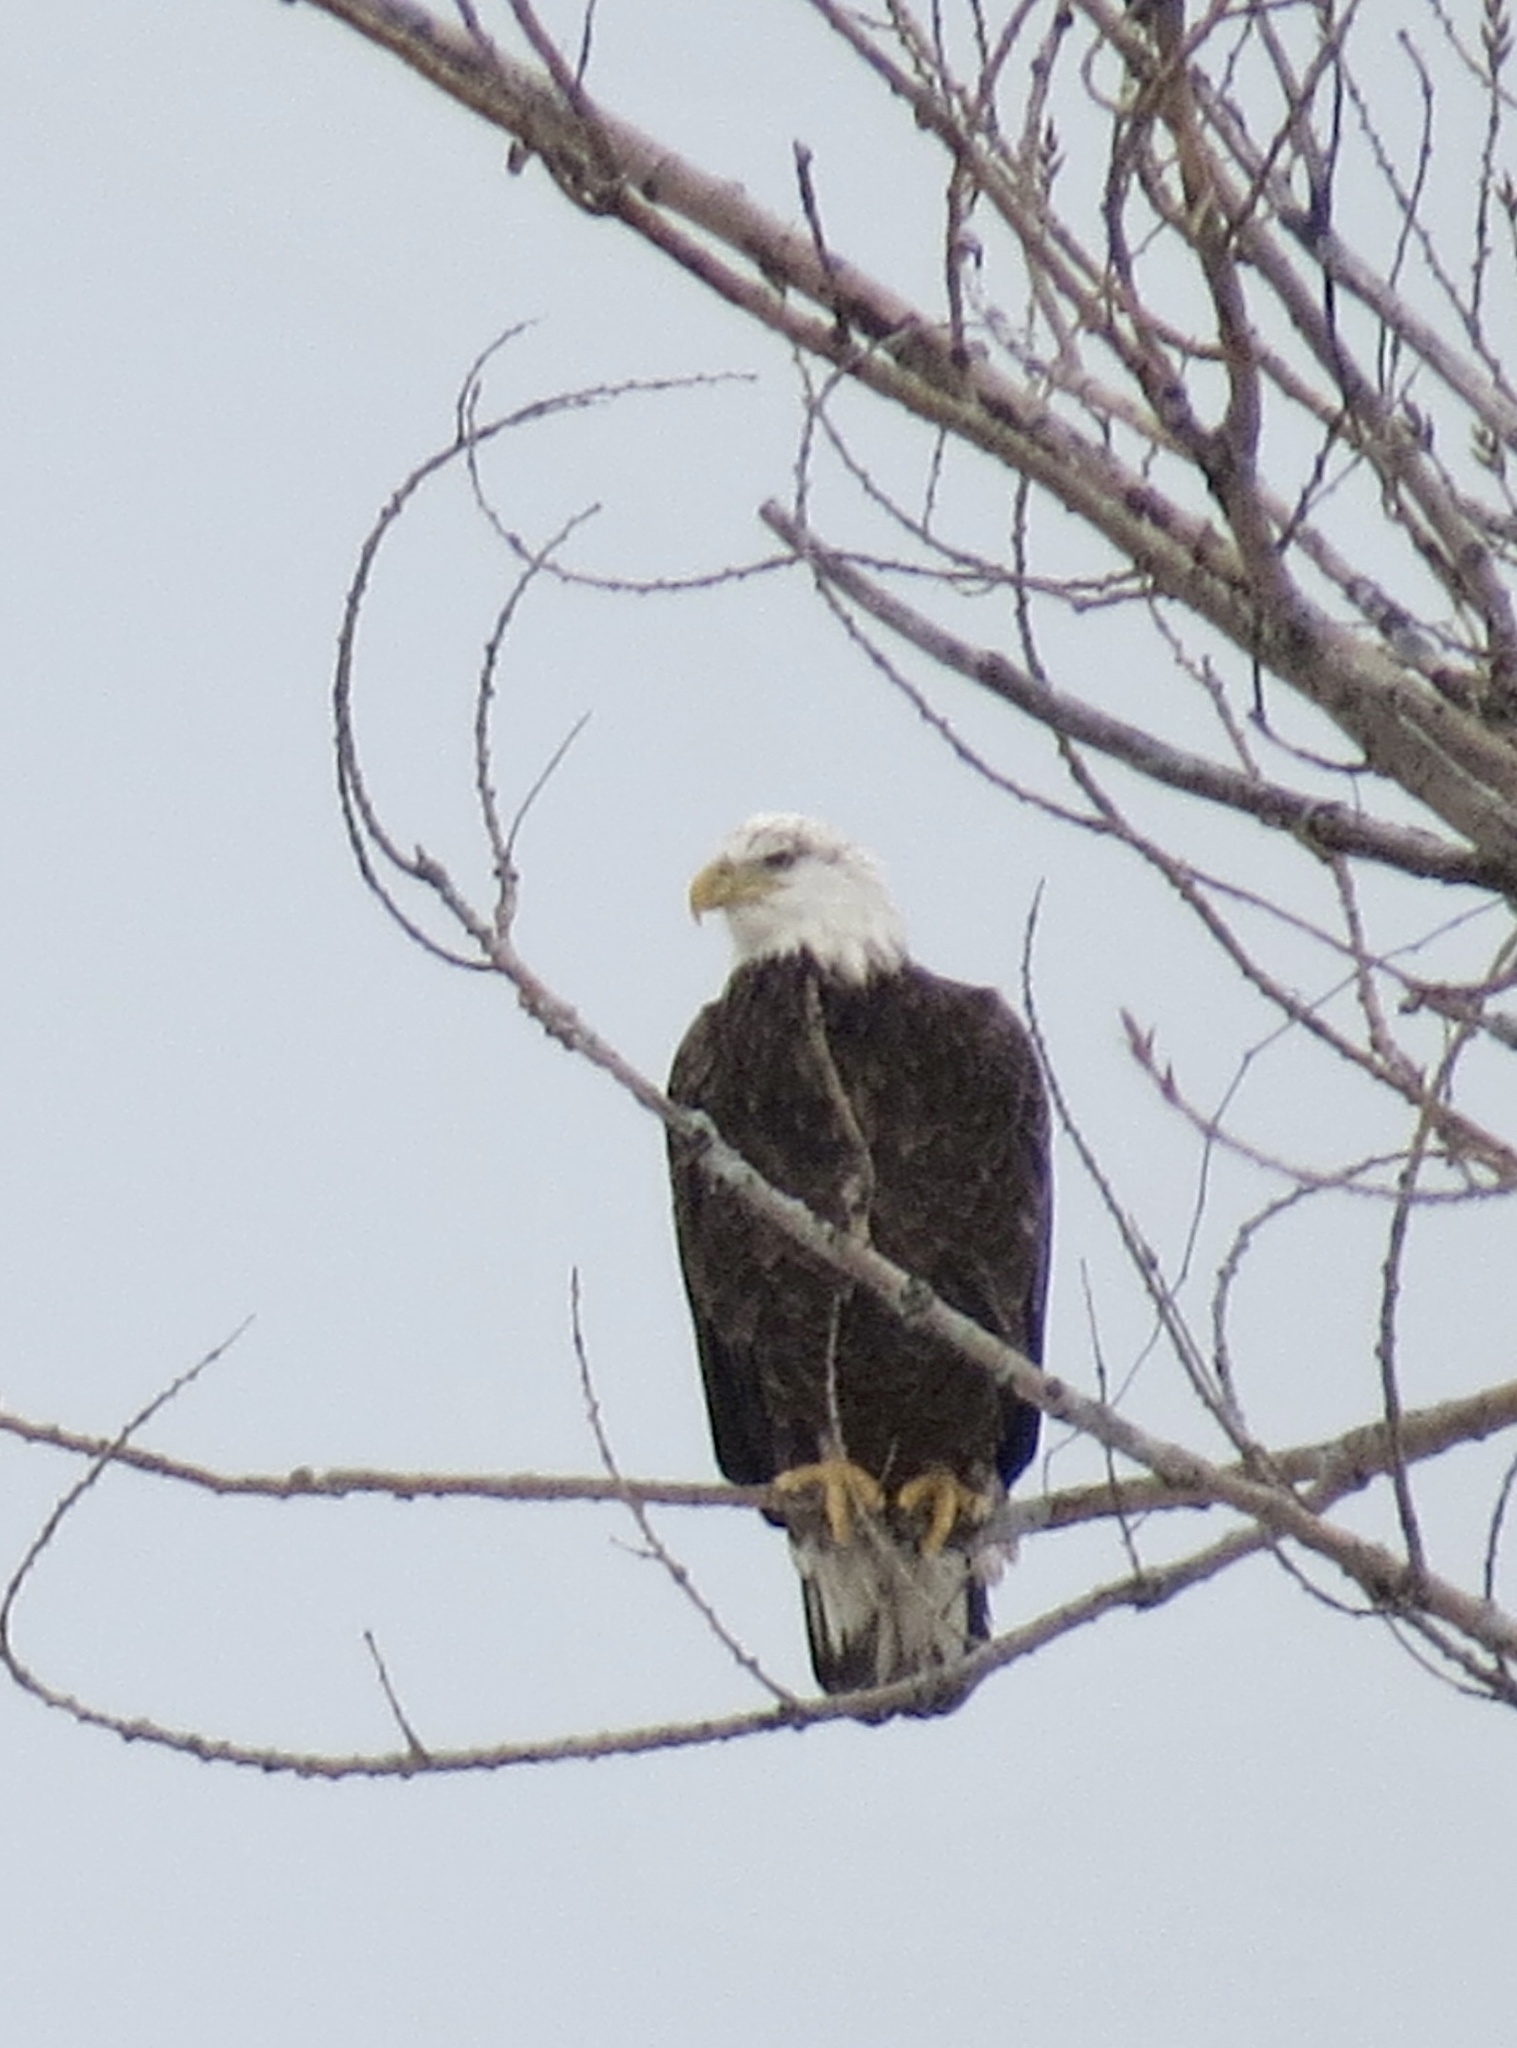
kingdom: Animalia
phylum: Chordata
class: Aves
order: Accipitriformes
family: Accipitridae
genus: Haliaeetus
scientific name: Haliaeetus leucocephalus
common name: Bald eagle
